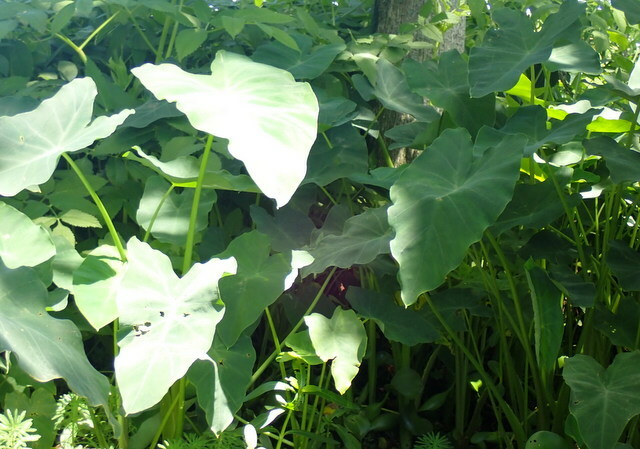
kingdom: Plantae
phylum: Tracheophyta
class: Liliopsida
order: Alismatales
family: Araceae
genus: Colocasia
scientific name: Colocasia esculenta
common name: Taro
